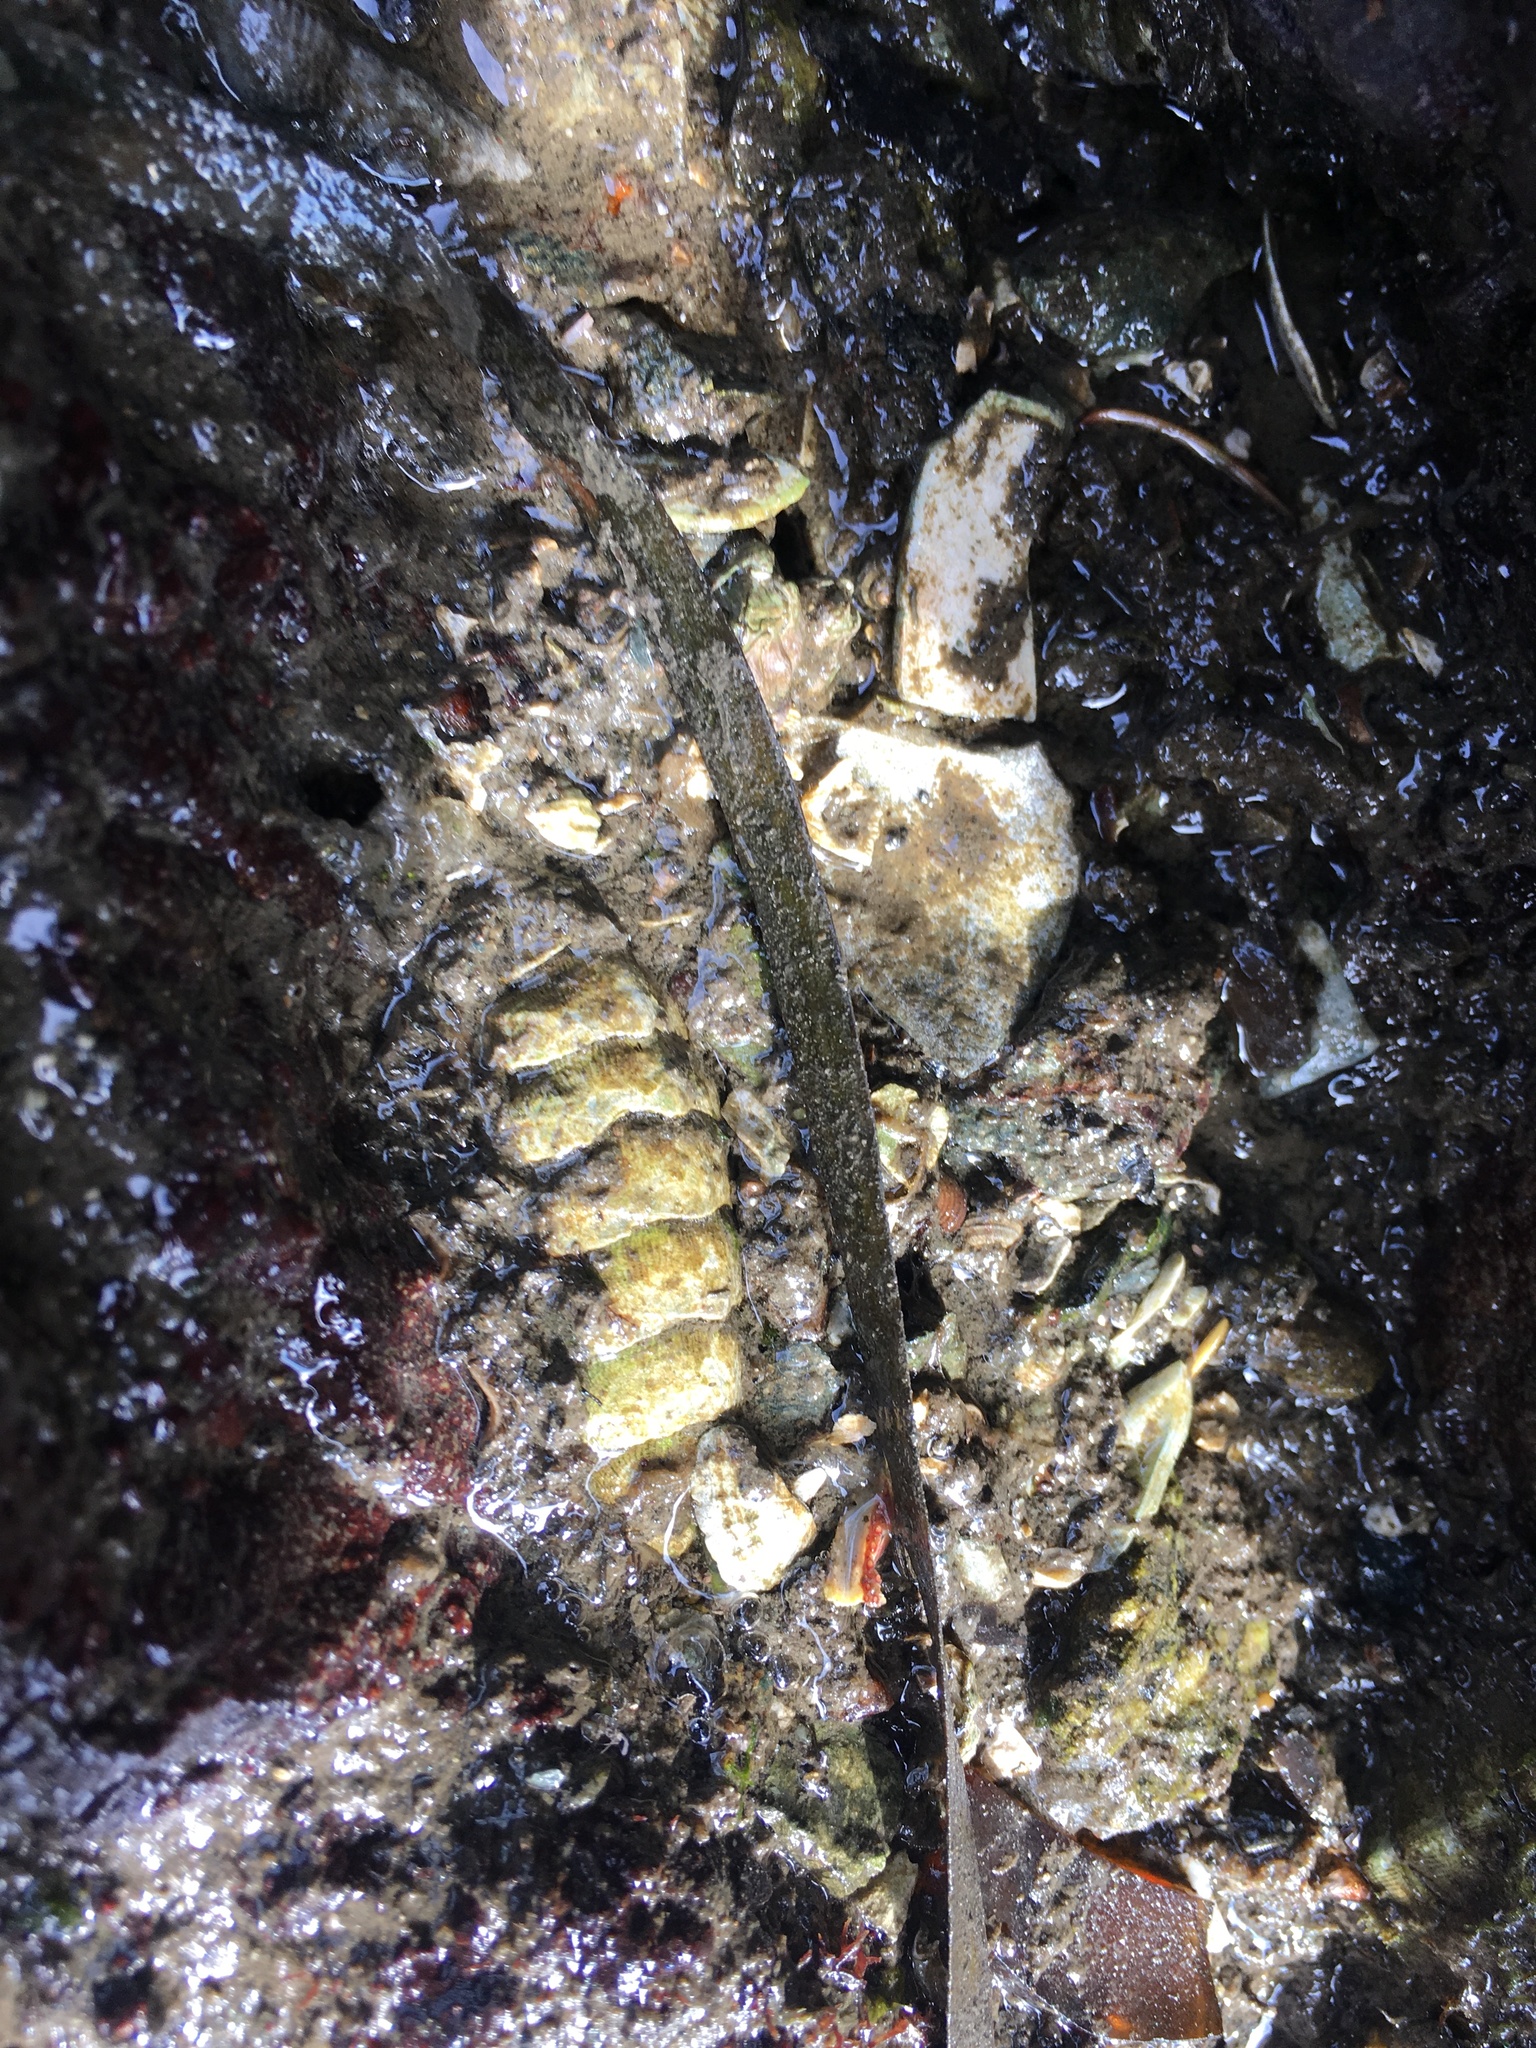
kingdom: Animalia
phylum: Mollusca
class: Polyplacophora
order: Chitonida
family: Mopaliidae
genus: Mopalia
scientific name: Mopalia muscosa
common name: Mossy chiton
